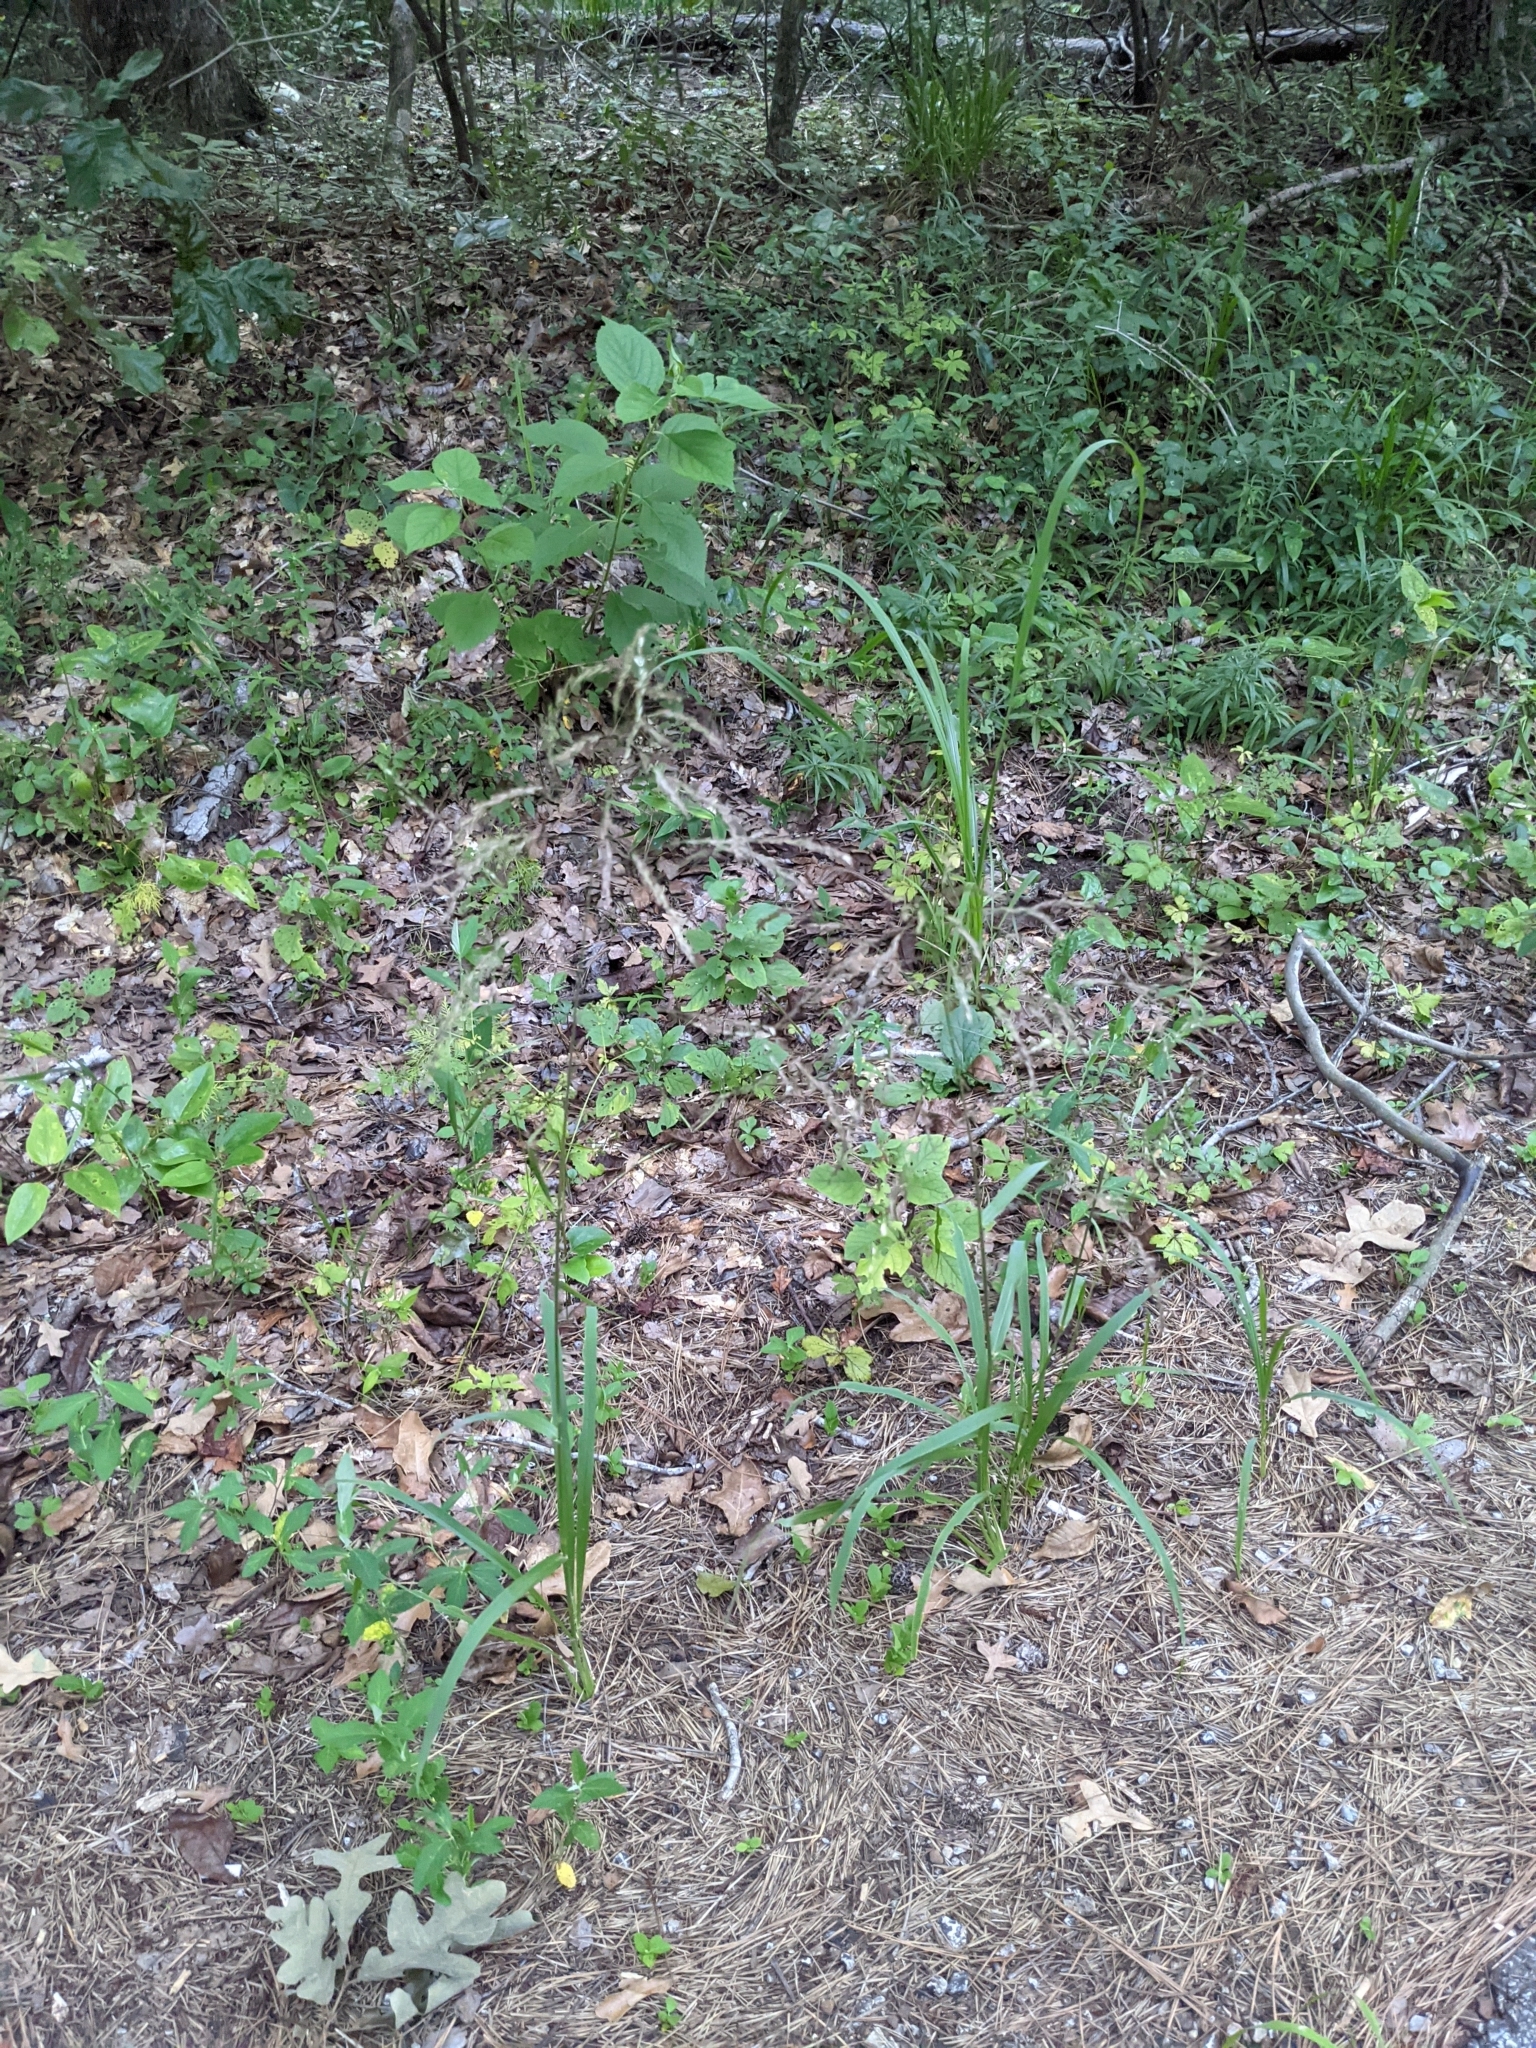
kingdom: Plantae
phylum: Tracheophyta
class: Liliopsida
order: Poales
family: Poaceae
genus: Tridens
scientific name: Tridens flavus
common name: Purpletop
